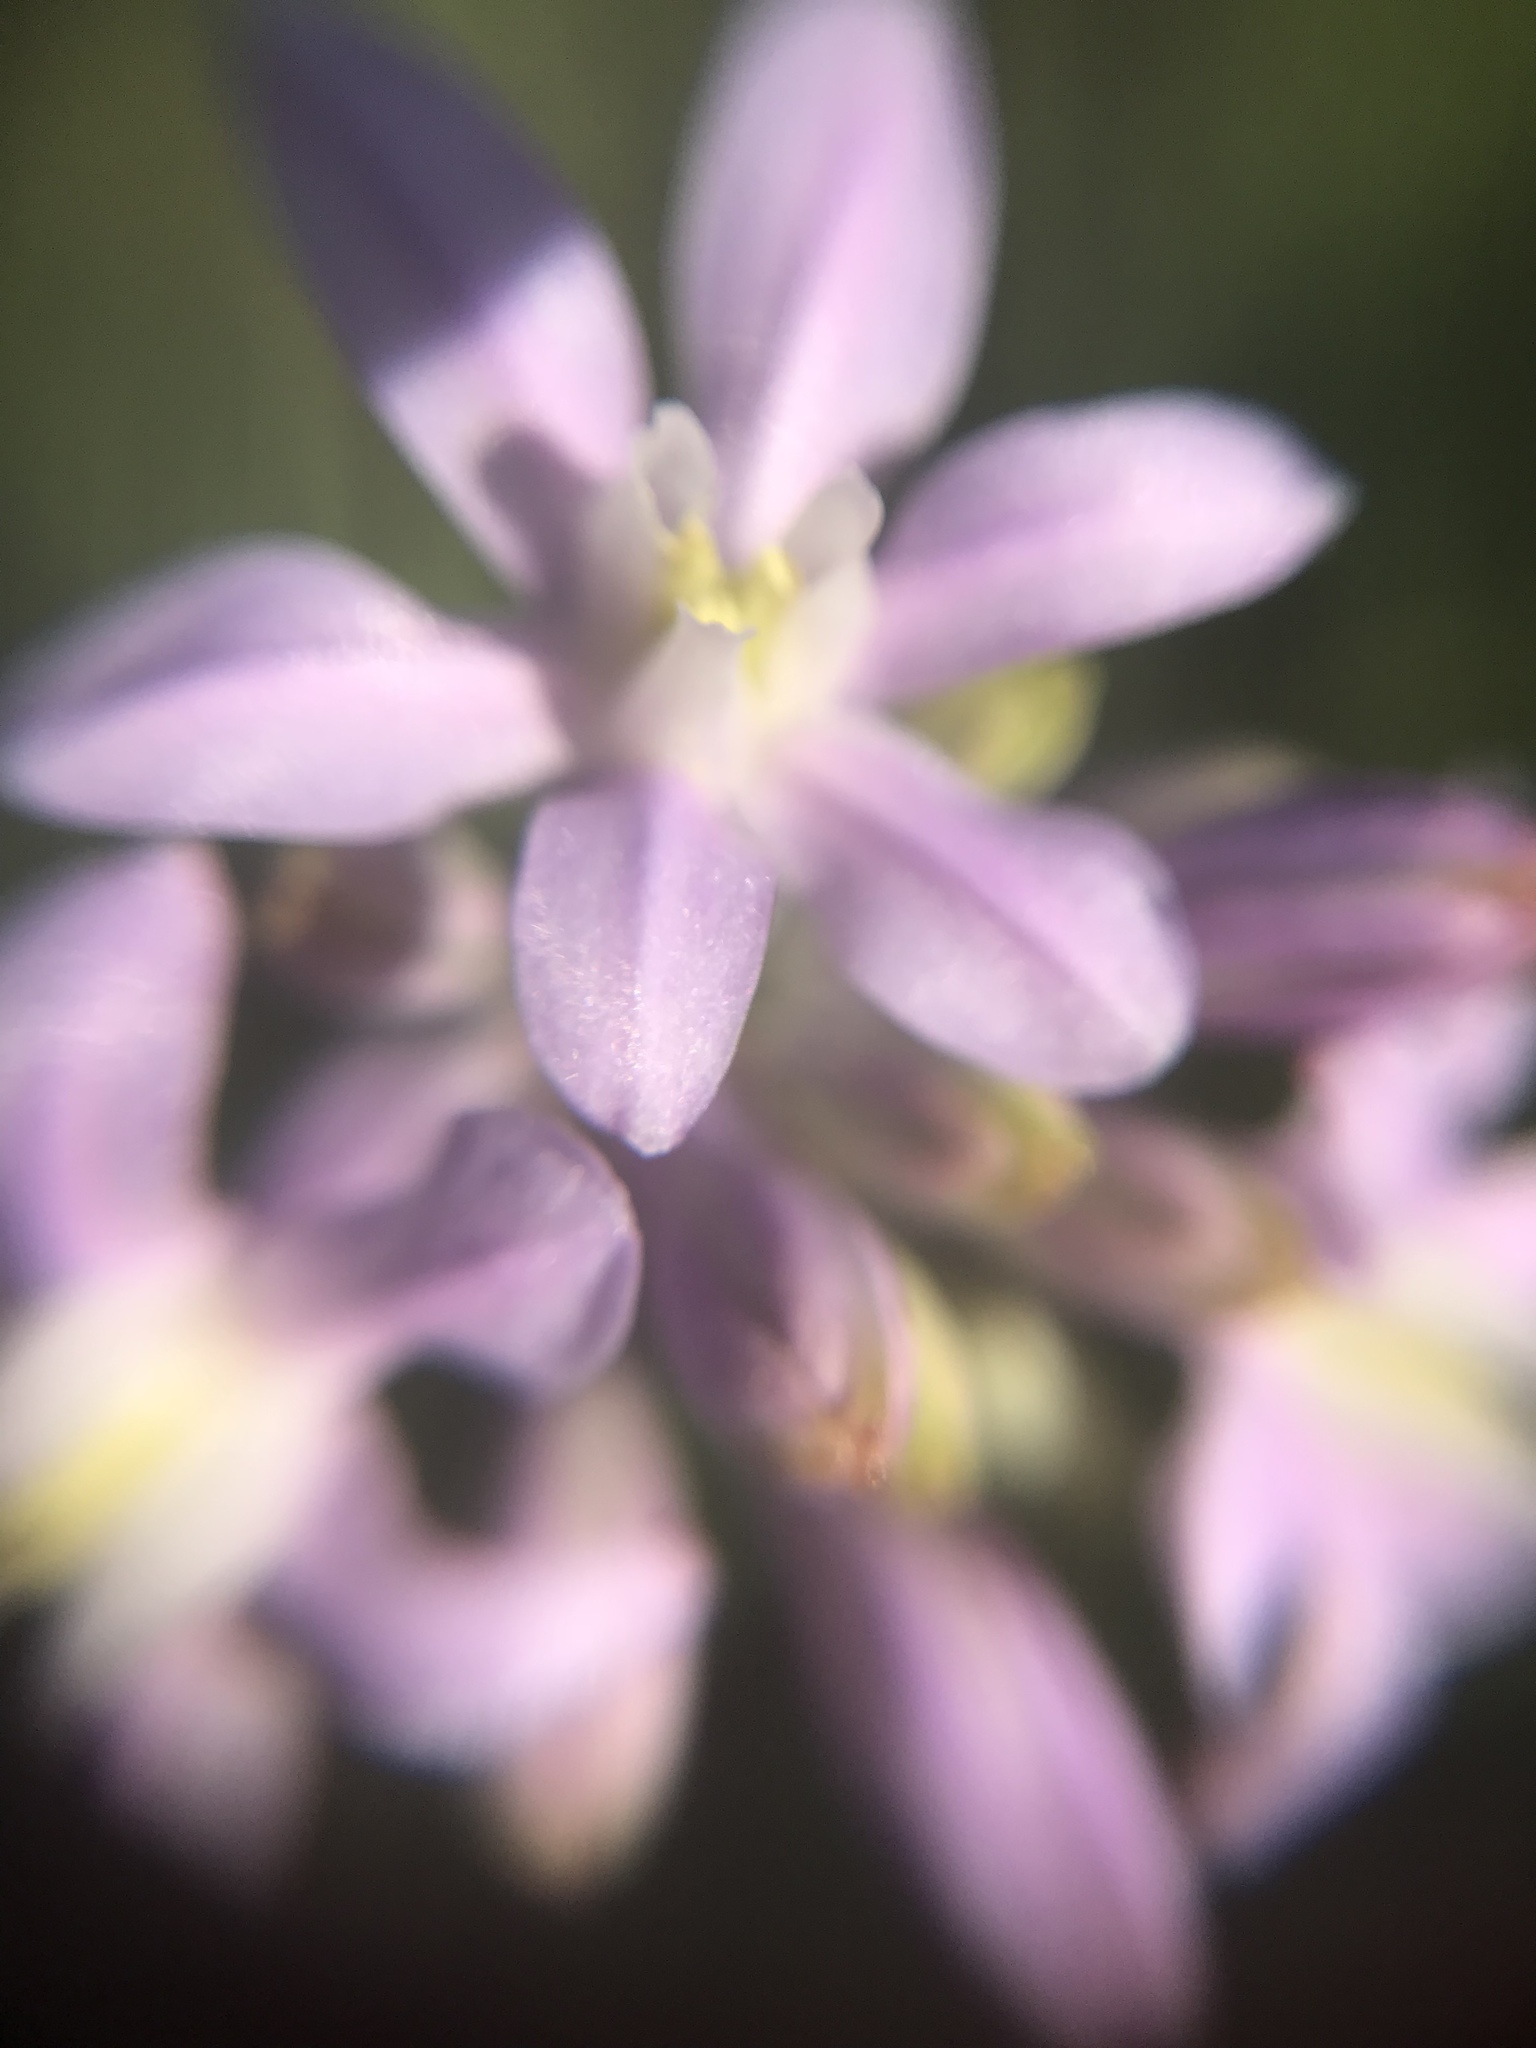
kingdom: Plantae
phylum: Tracheophyta
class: Liliopsida
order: Asparagales
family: Asparagaceae
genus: Dichelostemma
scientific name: Dichelostemma multiflorum
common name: Round-tooth ookow
